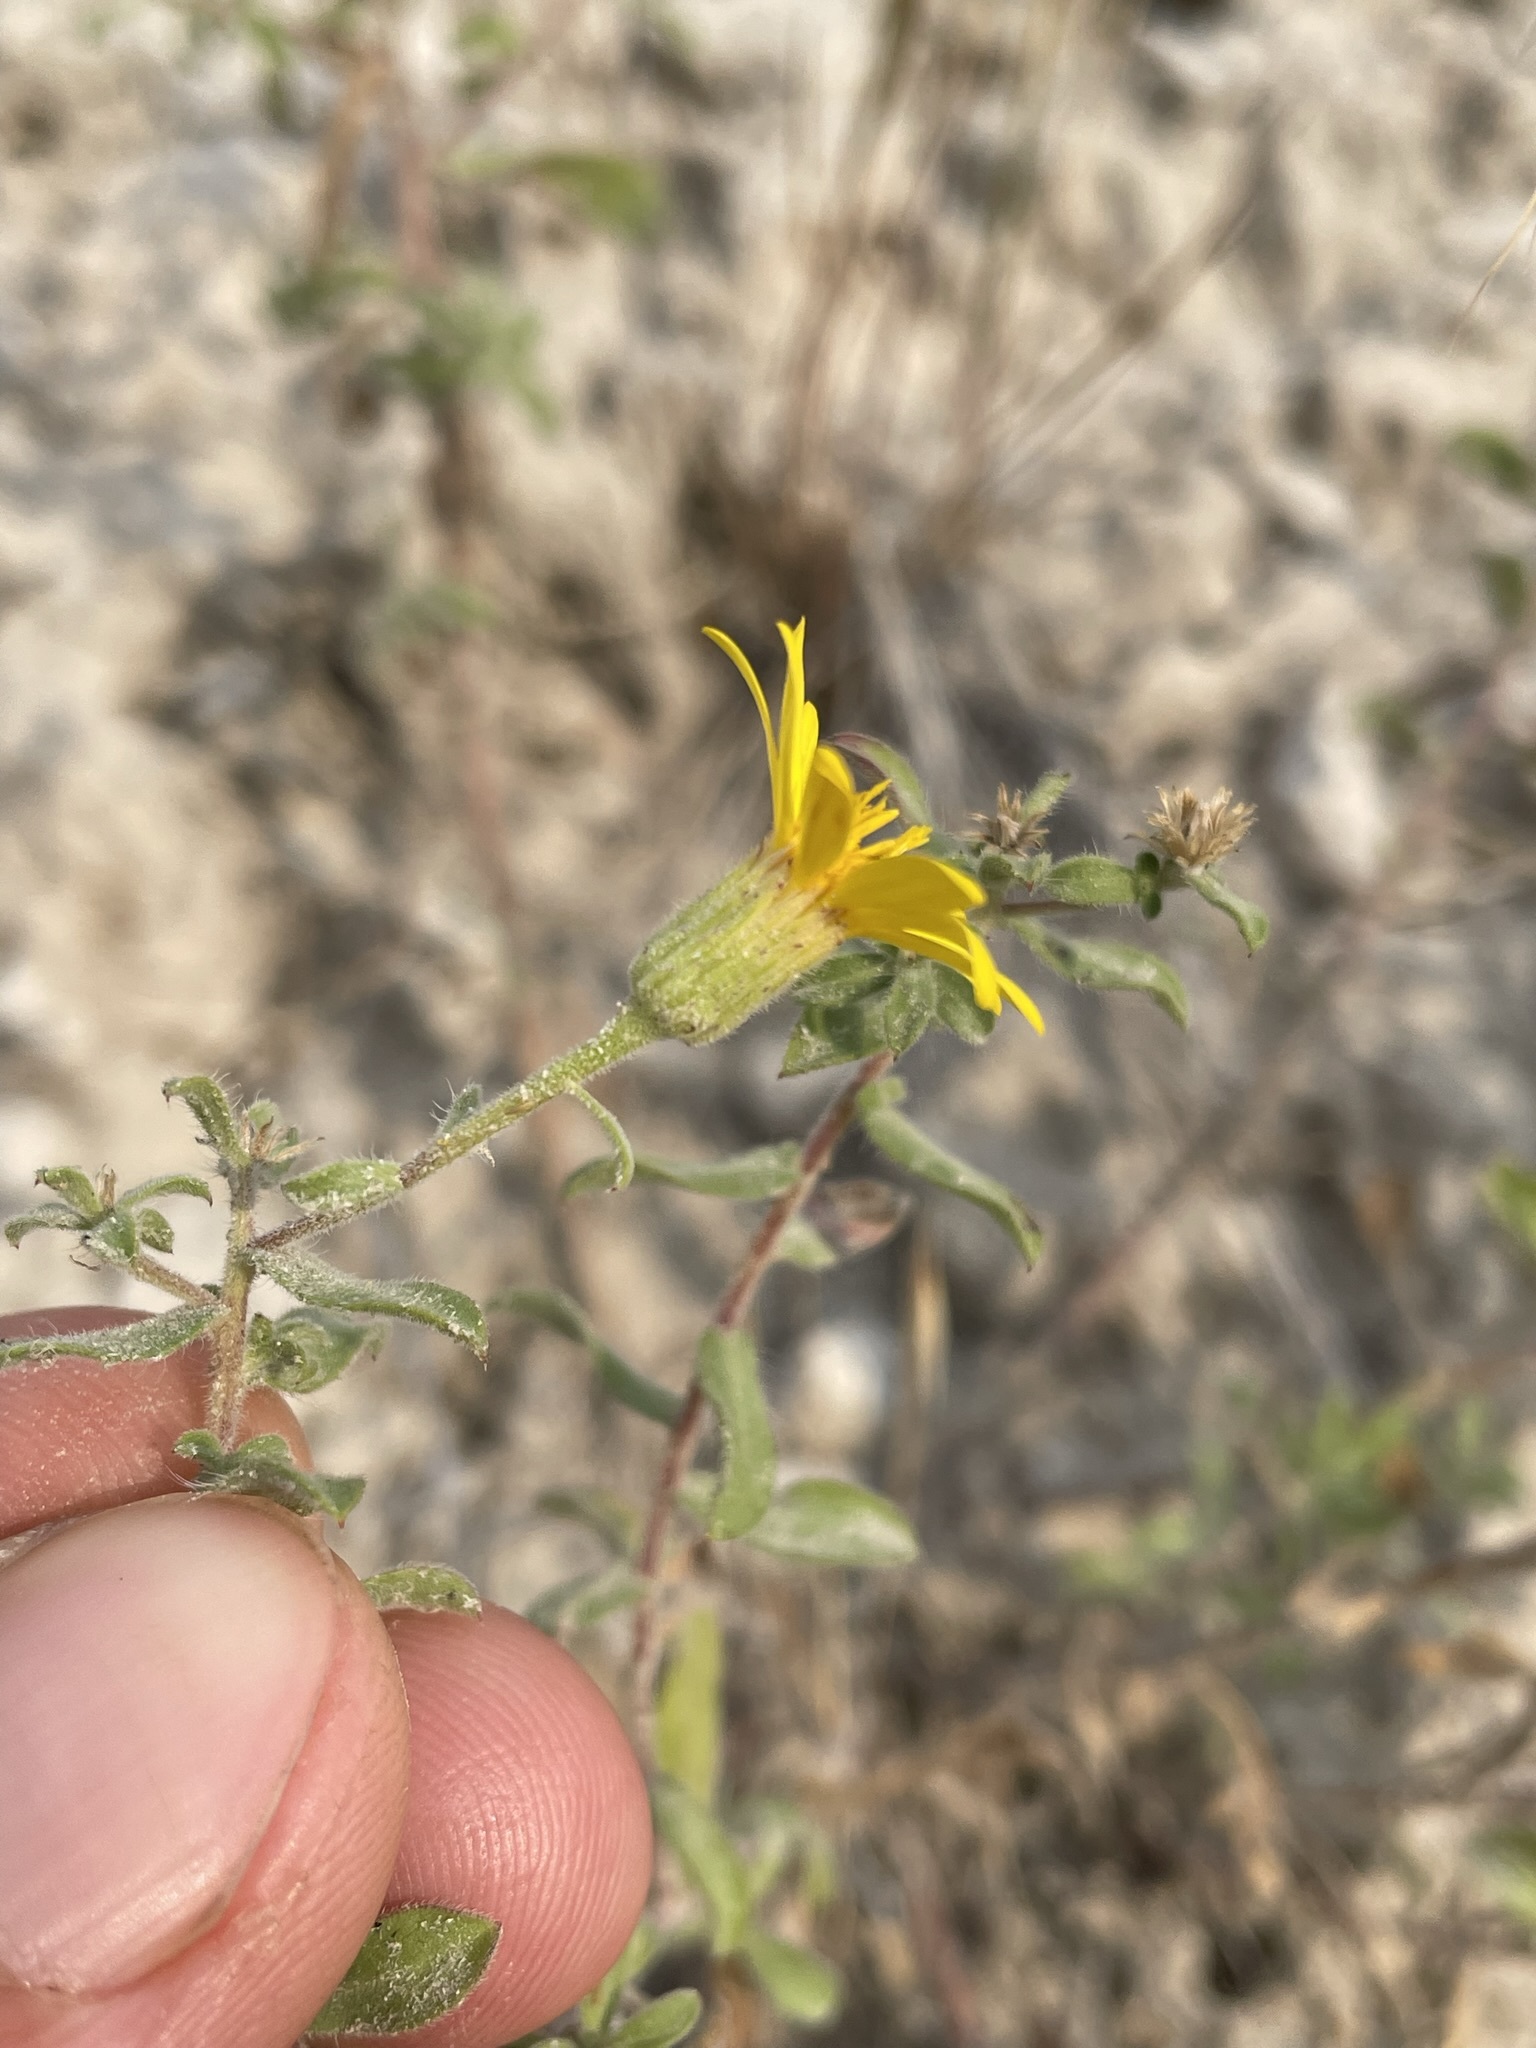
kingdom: Plantae
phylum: Tracheophyta
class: Magnoliopsida
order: Asterales
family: Asteraceae
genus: Heterotheca
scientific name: Heterotheca villosa
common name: Hairy false goldenaster
